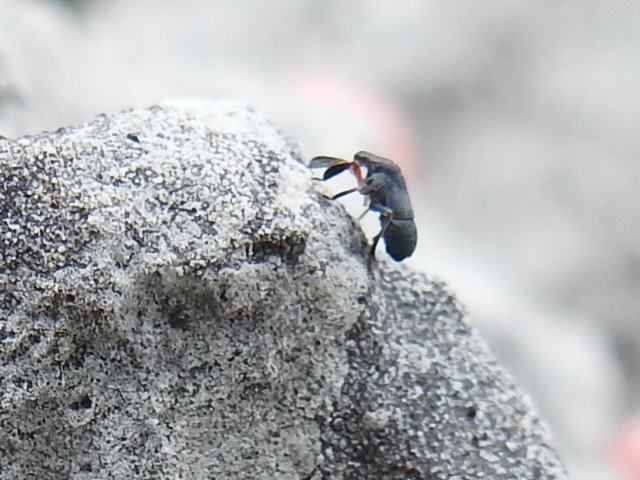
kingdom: Animalia
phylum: Arthropoda
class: Insecta
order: Hemiptera
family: Caliscelidae
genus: Fitchiella
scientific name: Fitchiella rufipes
